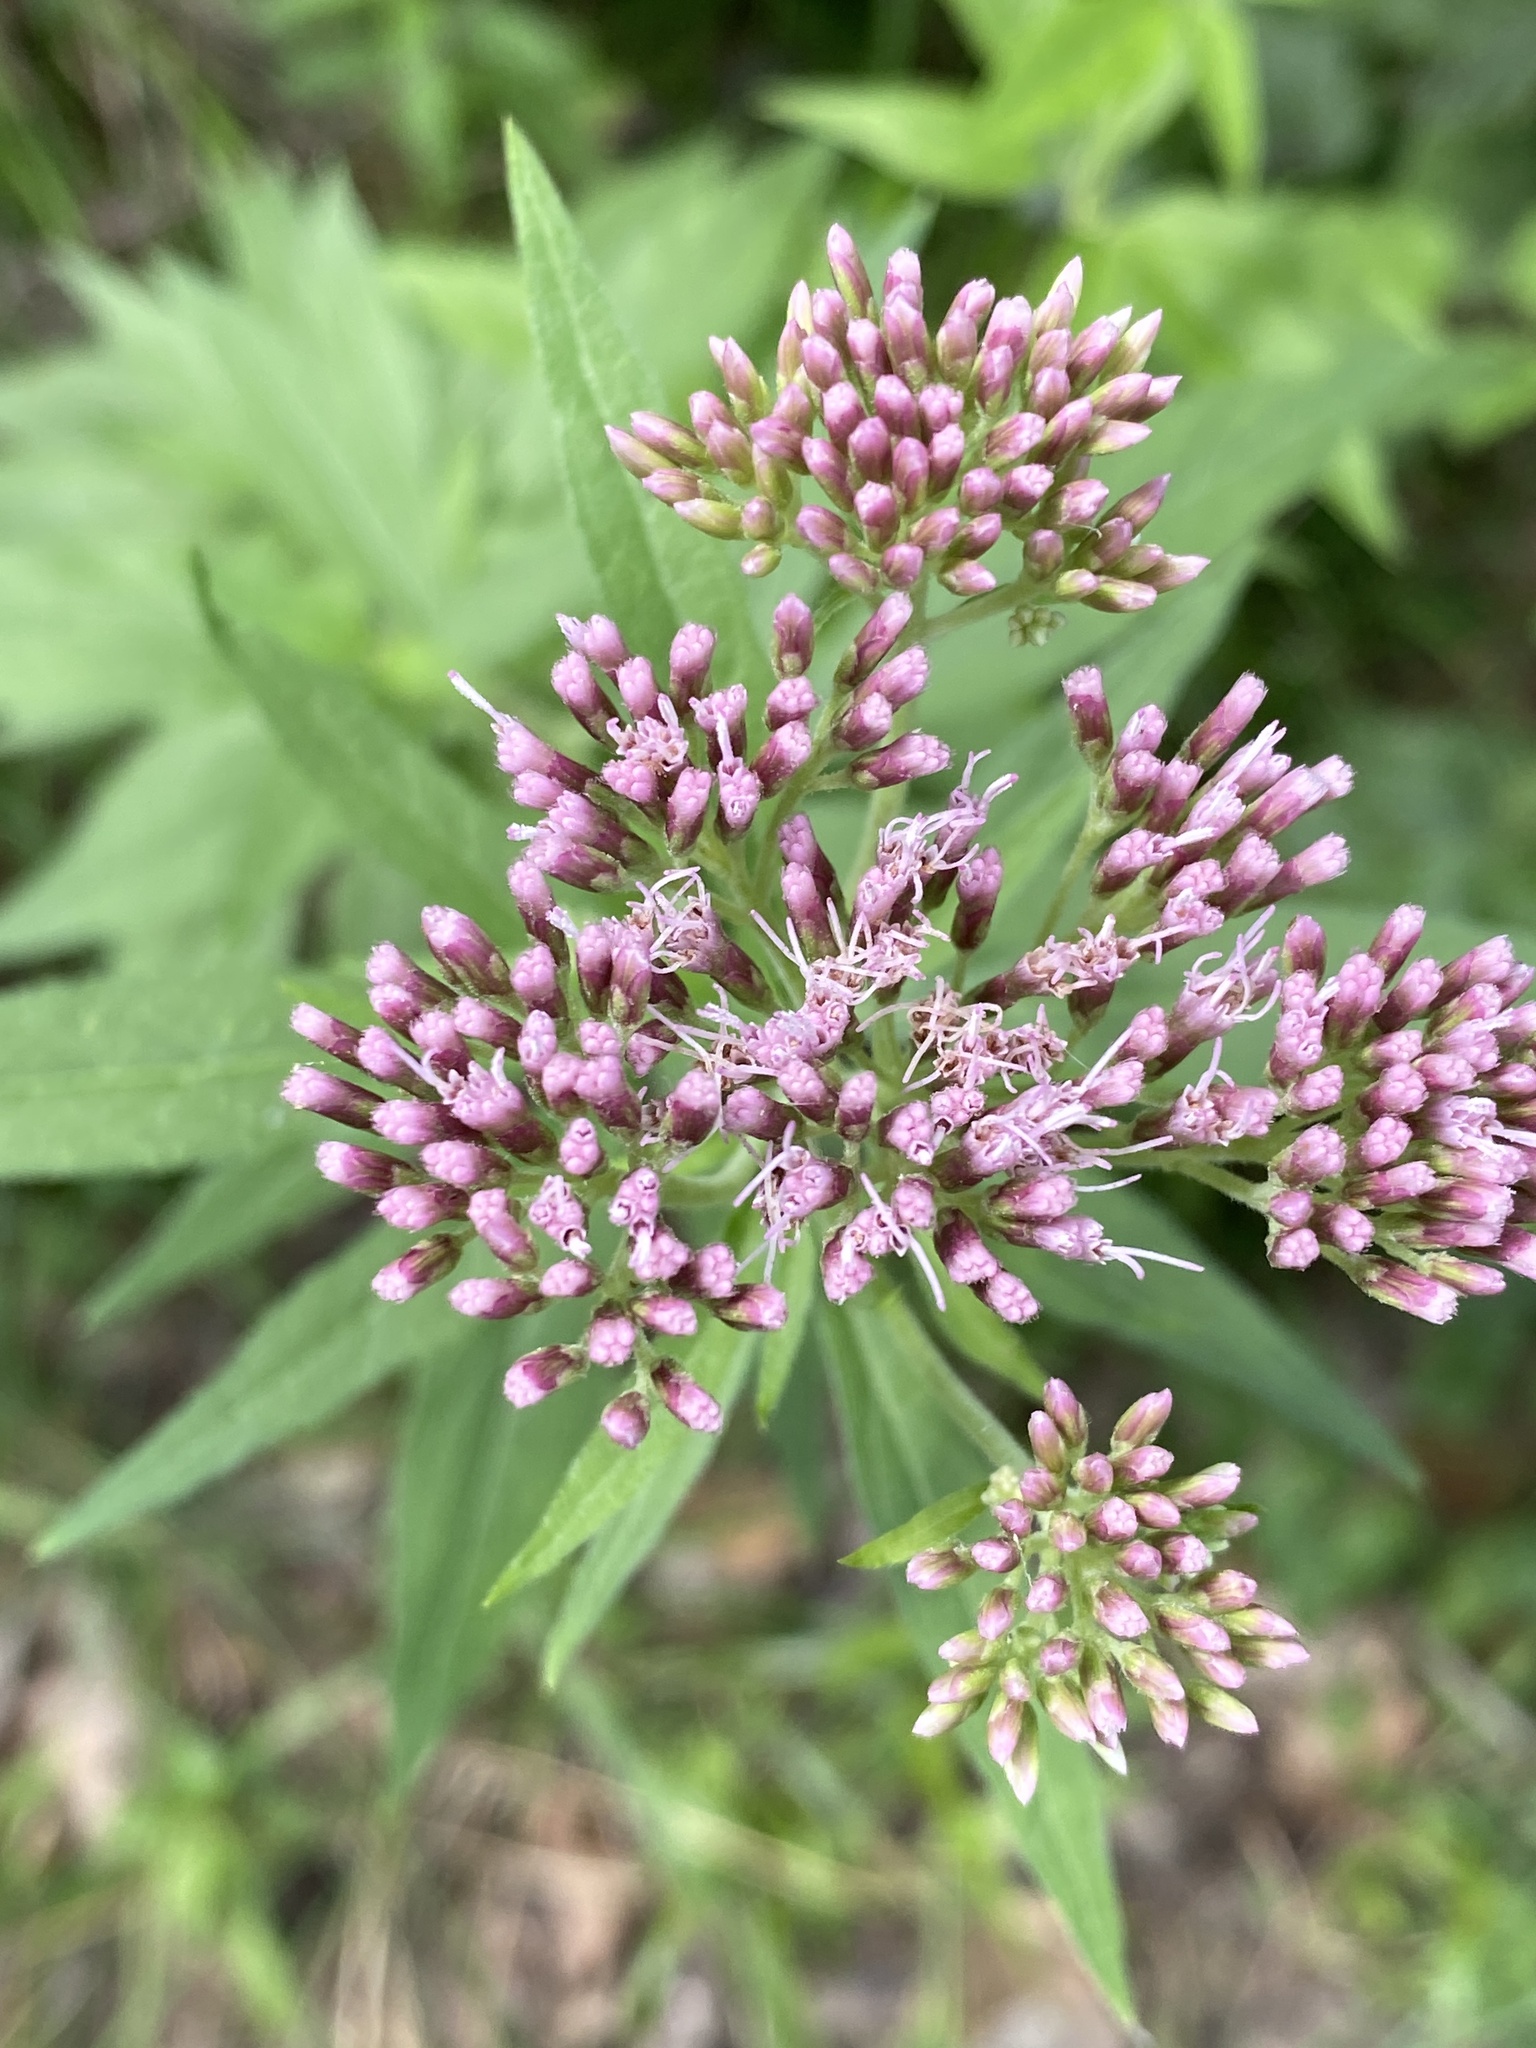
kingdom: Plantae
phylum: Tracheophyta
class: Magnoliopsida
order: Asterales
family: Asteraceae
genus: Eupatorium
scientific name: Eupatorium cannabinum
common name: Hemp-agrimony
